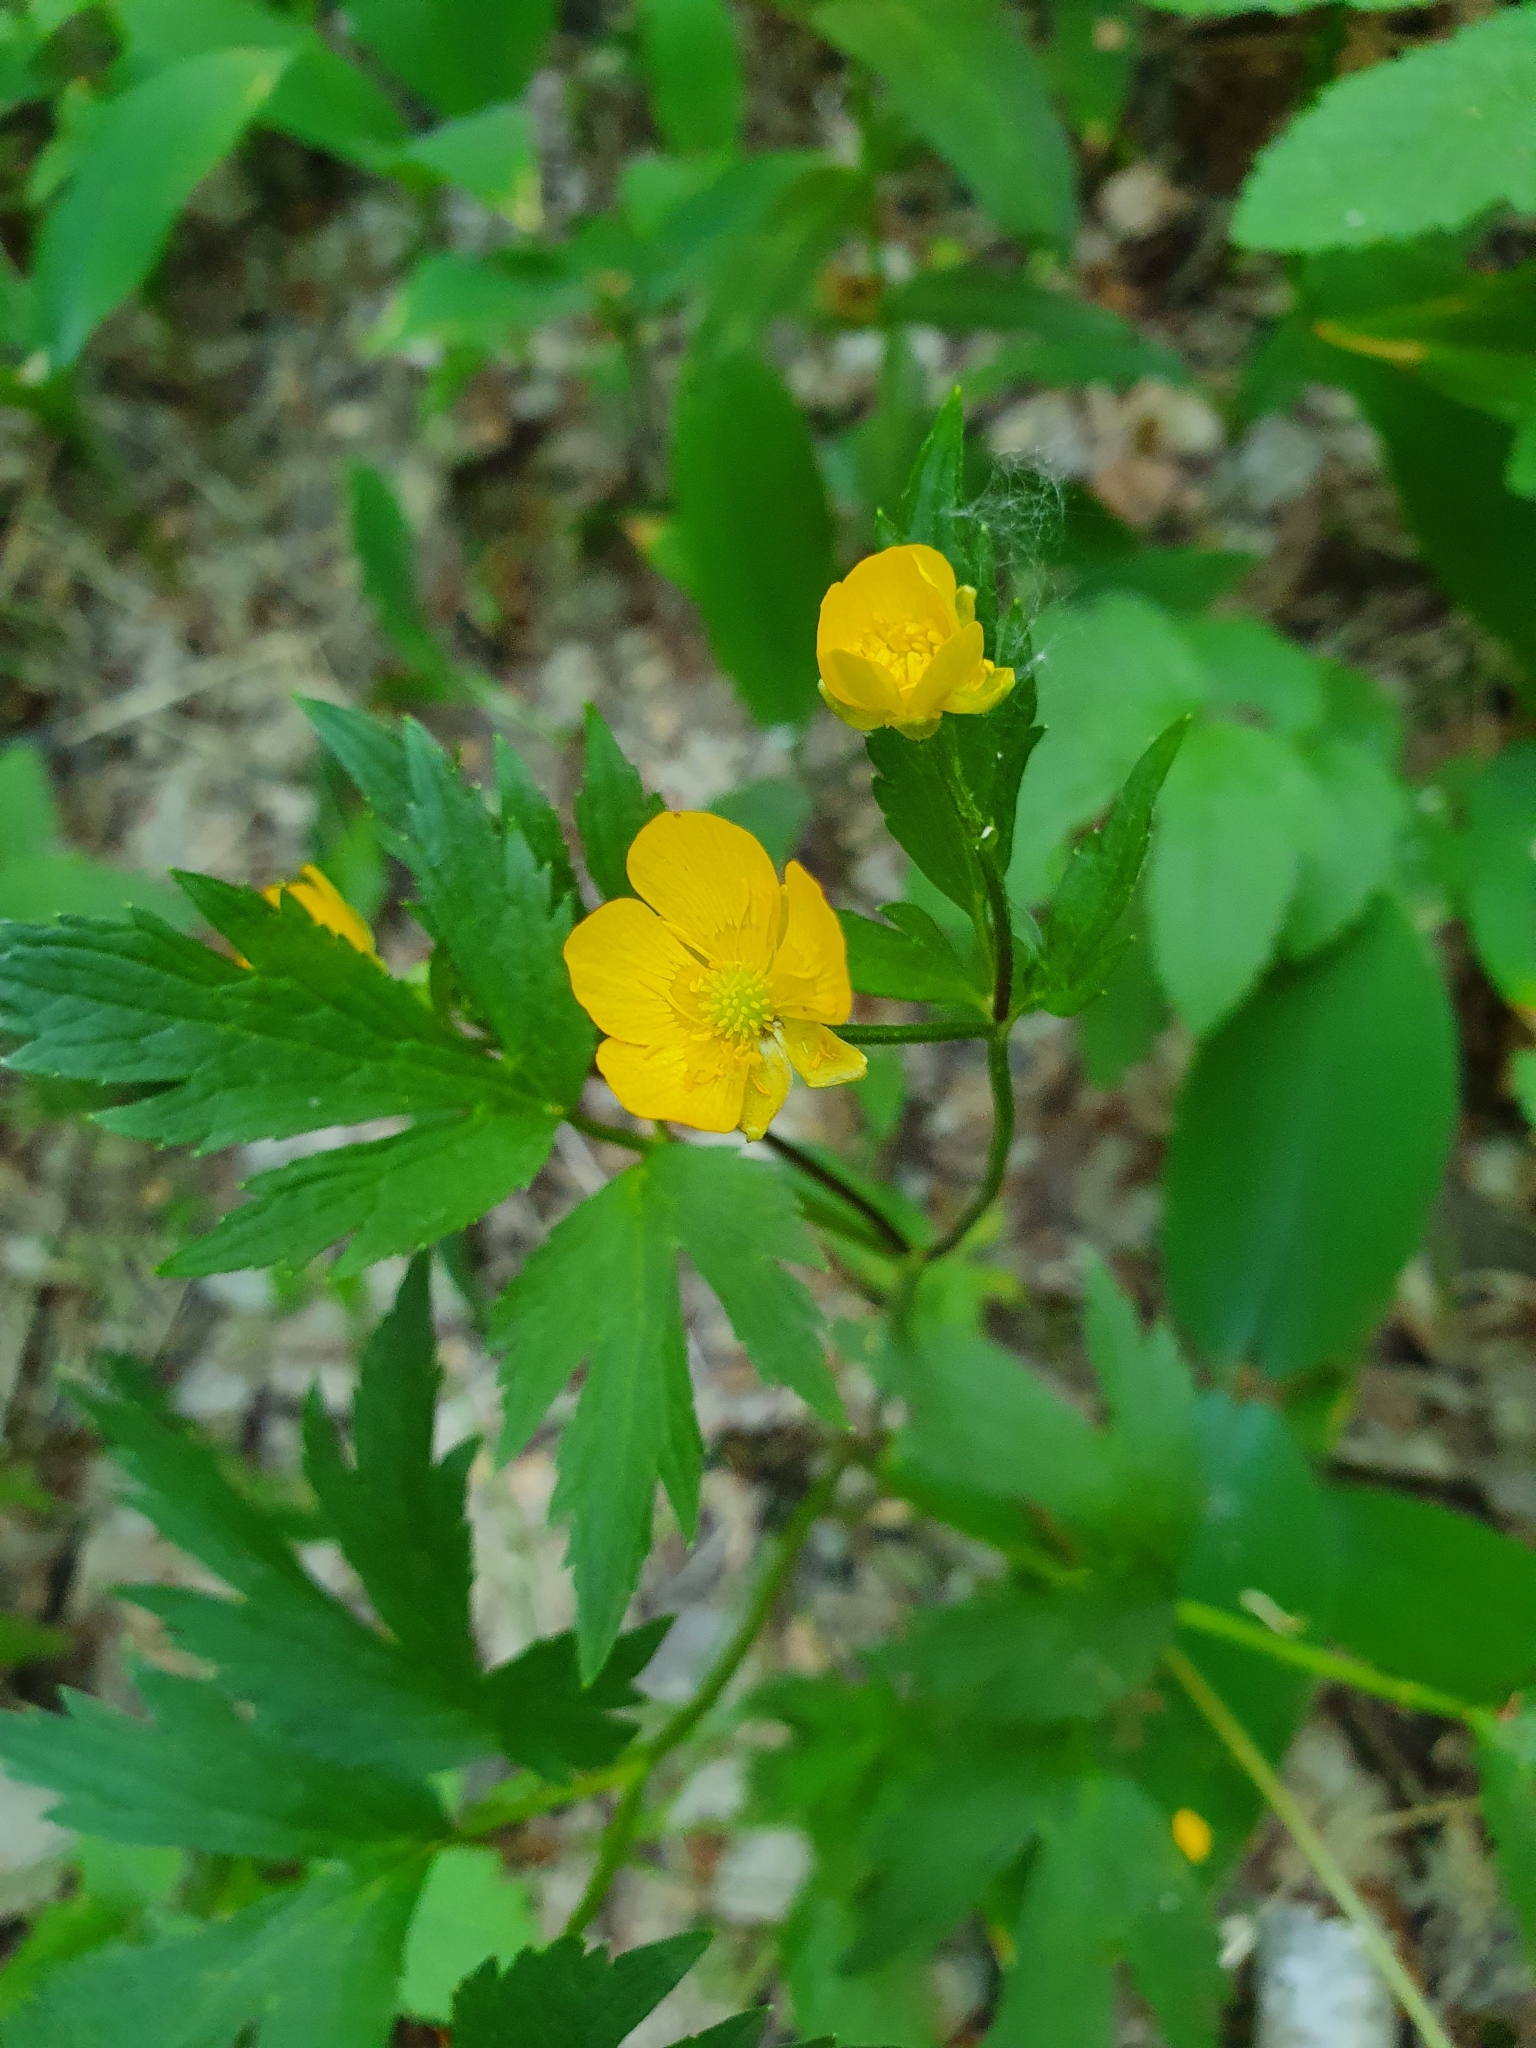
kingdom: Plantae
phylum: Tracheophyta
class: Magnoliopsida
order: Ranunculales
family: Ranunculaceae
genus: Ranunculus
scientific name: Ranunculus repens
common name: Creeping buttercup
